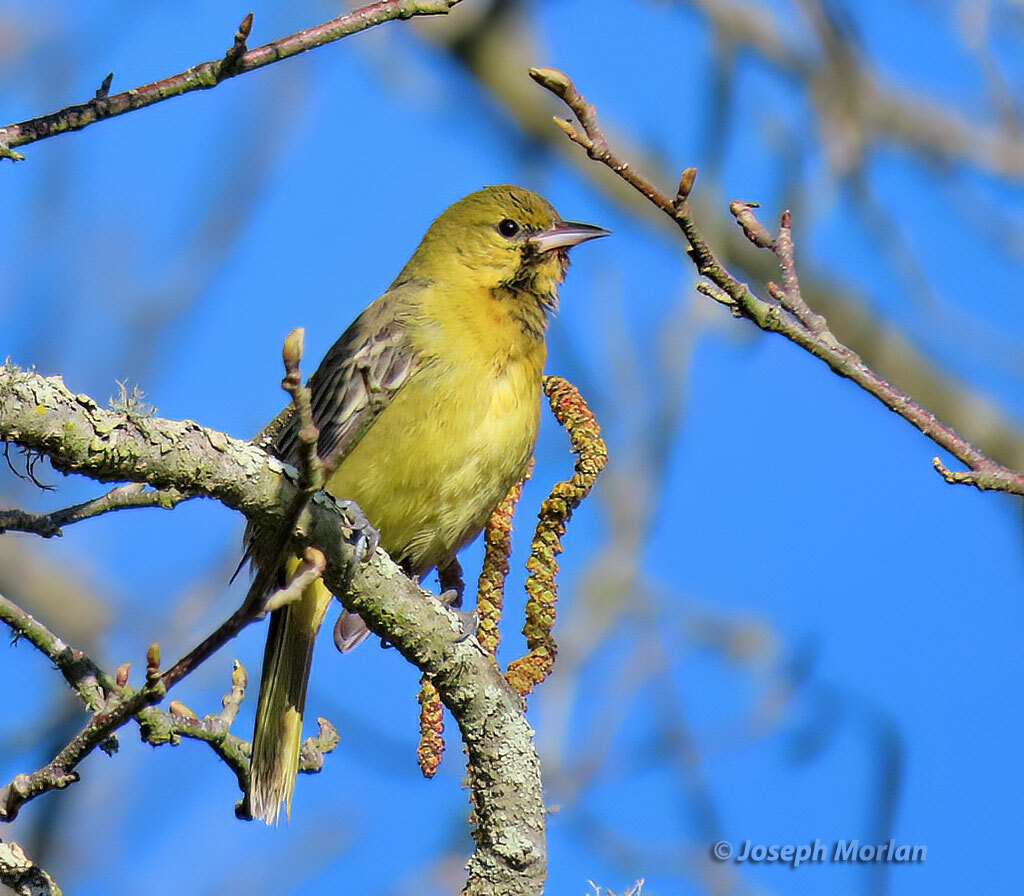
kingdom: Animalia
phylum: Chordata
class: Aves
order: Passeriformes
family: Icteridae
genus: Icterus
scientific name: Icterus spurius
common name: Orchard oriole
